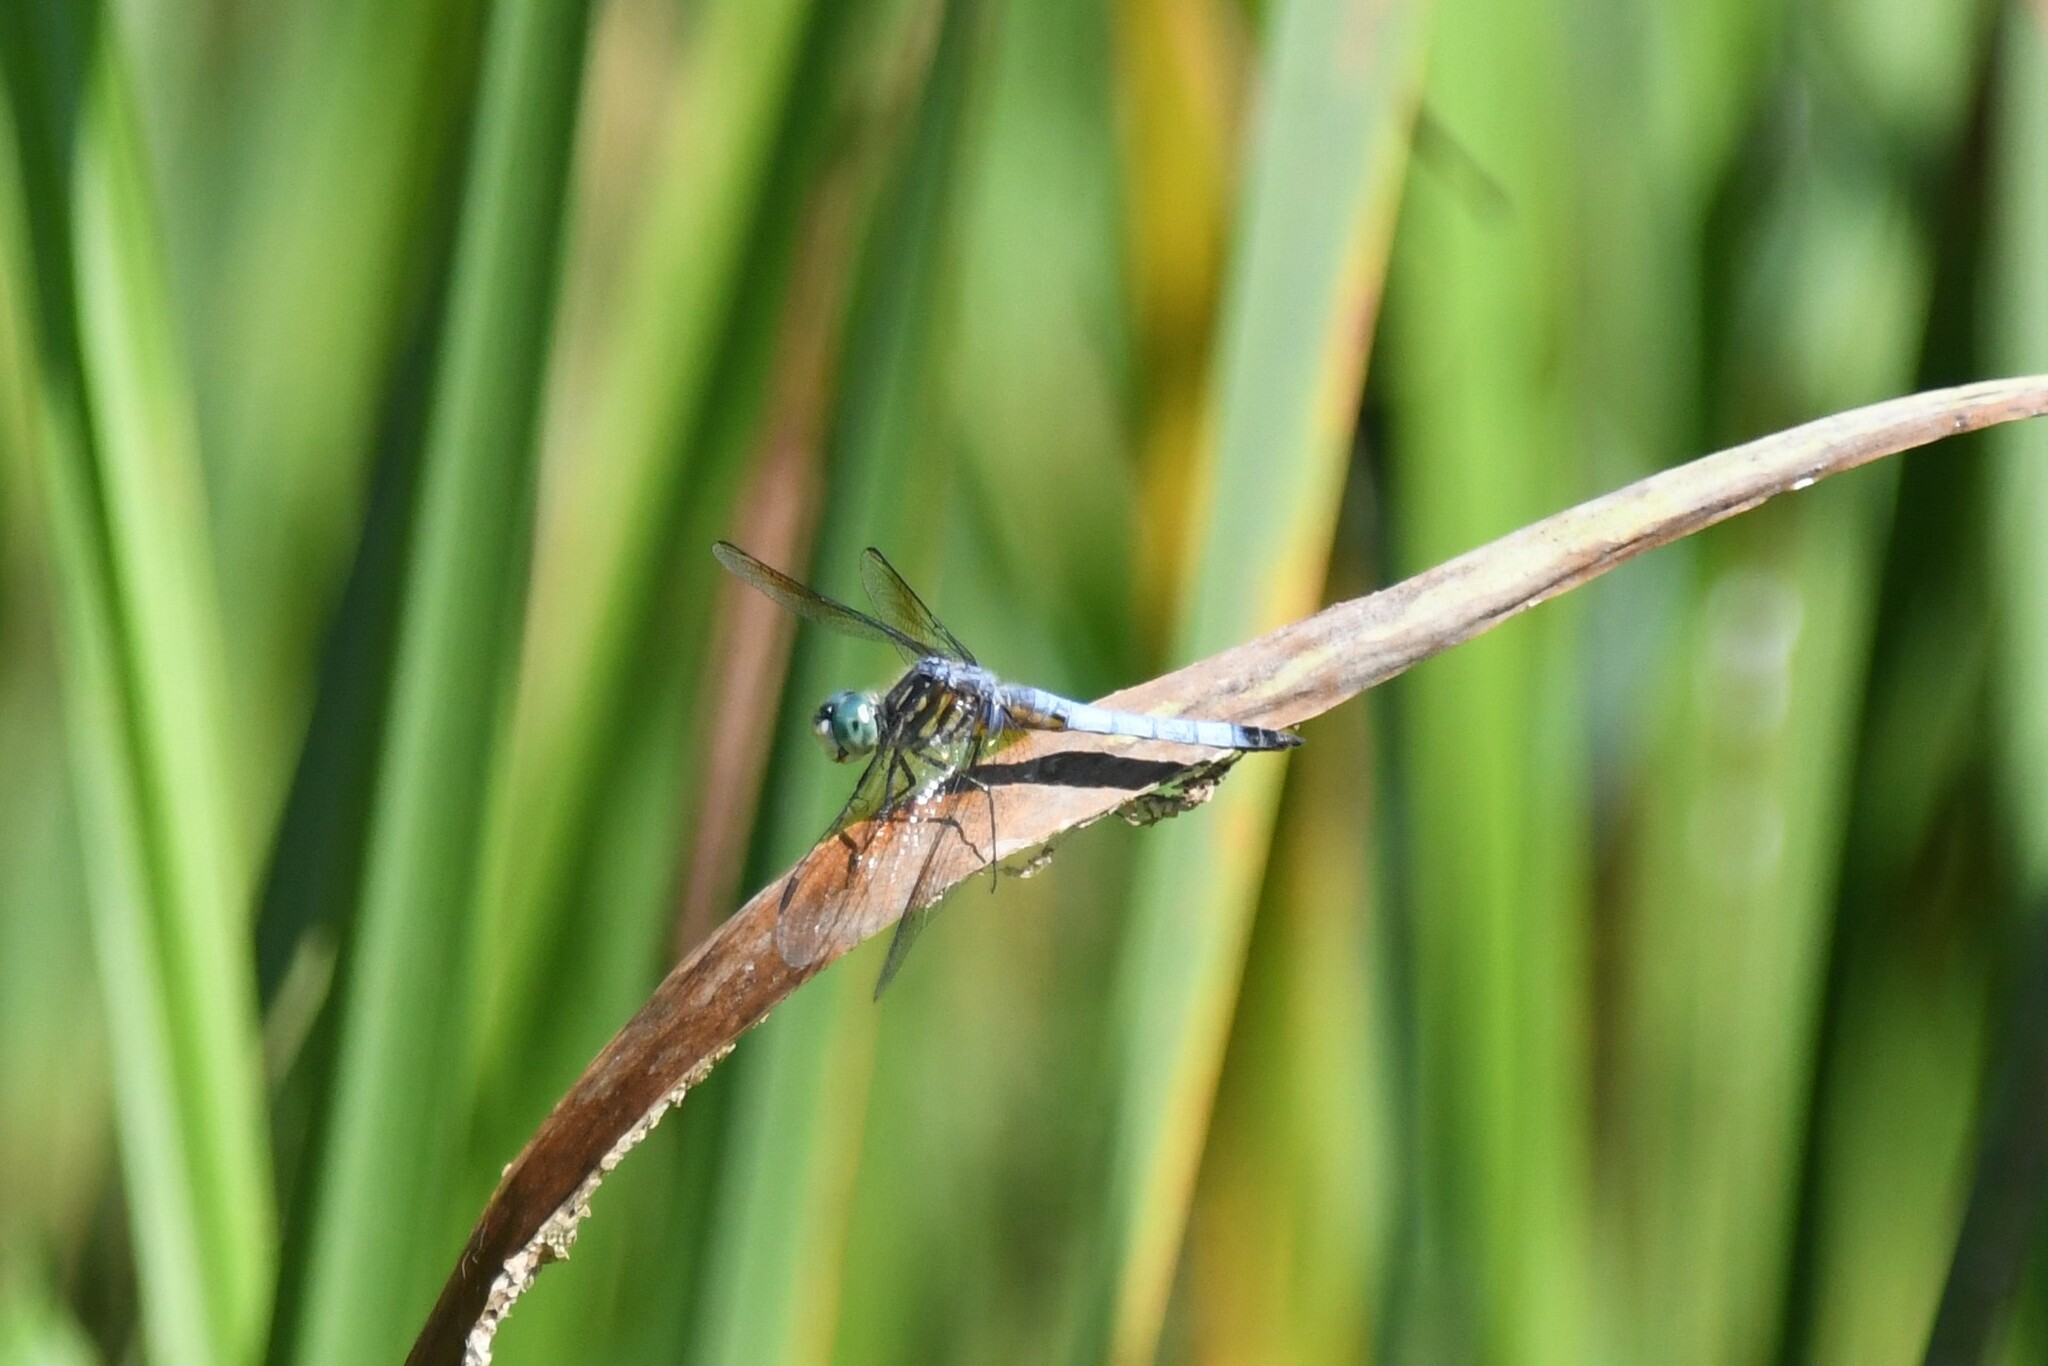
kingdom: Animalia
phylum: Arthropoda
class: Insecta
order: Odonata
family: Libellulidae
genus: Pachydiplax
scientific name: Pachydiplax longipennis
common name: Blue dasher
